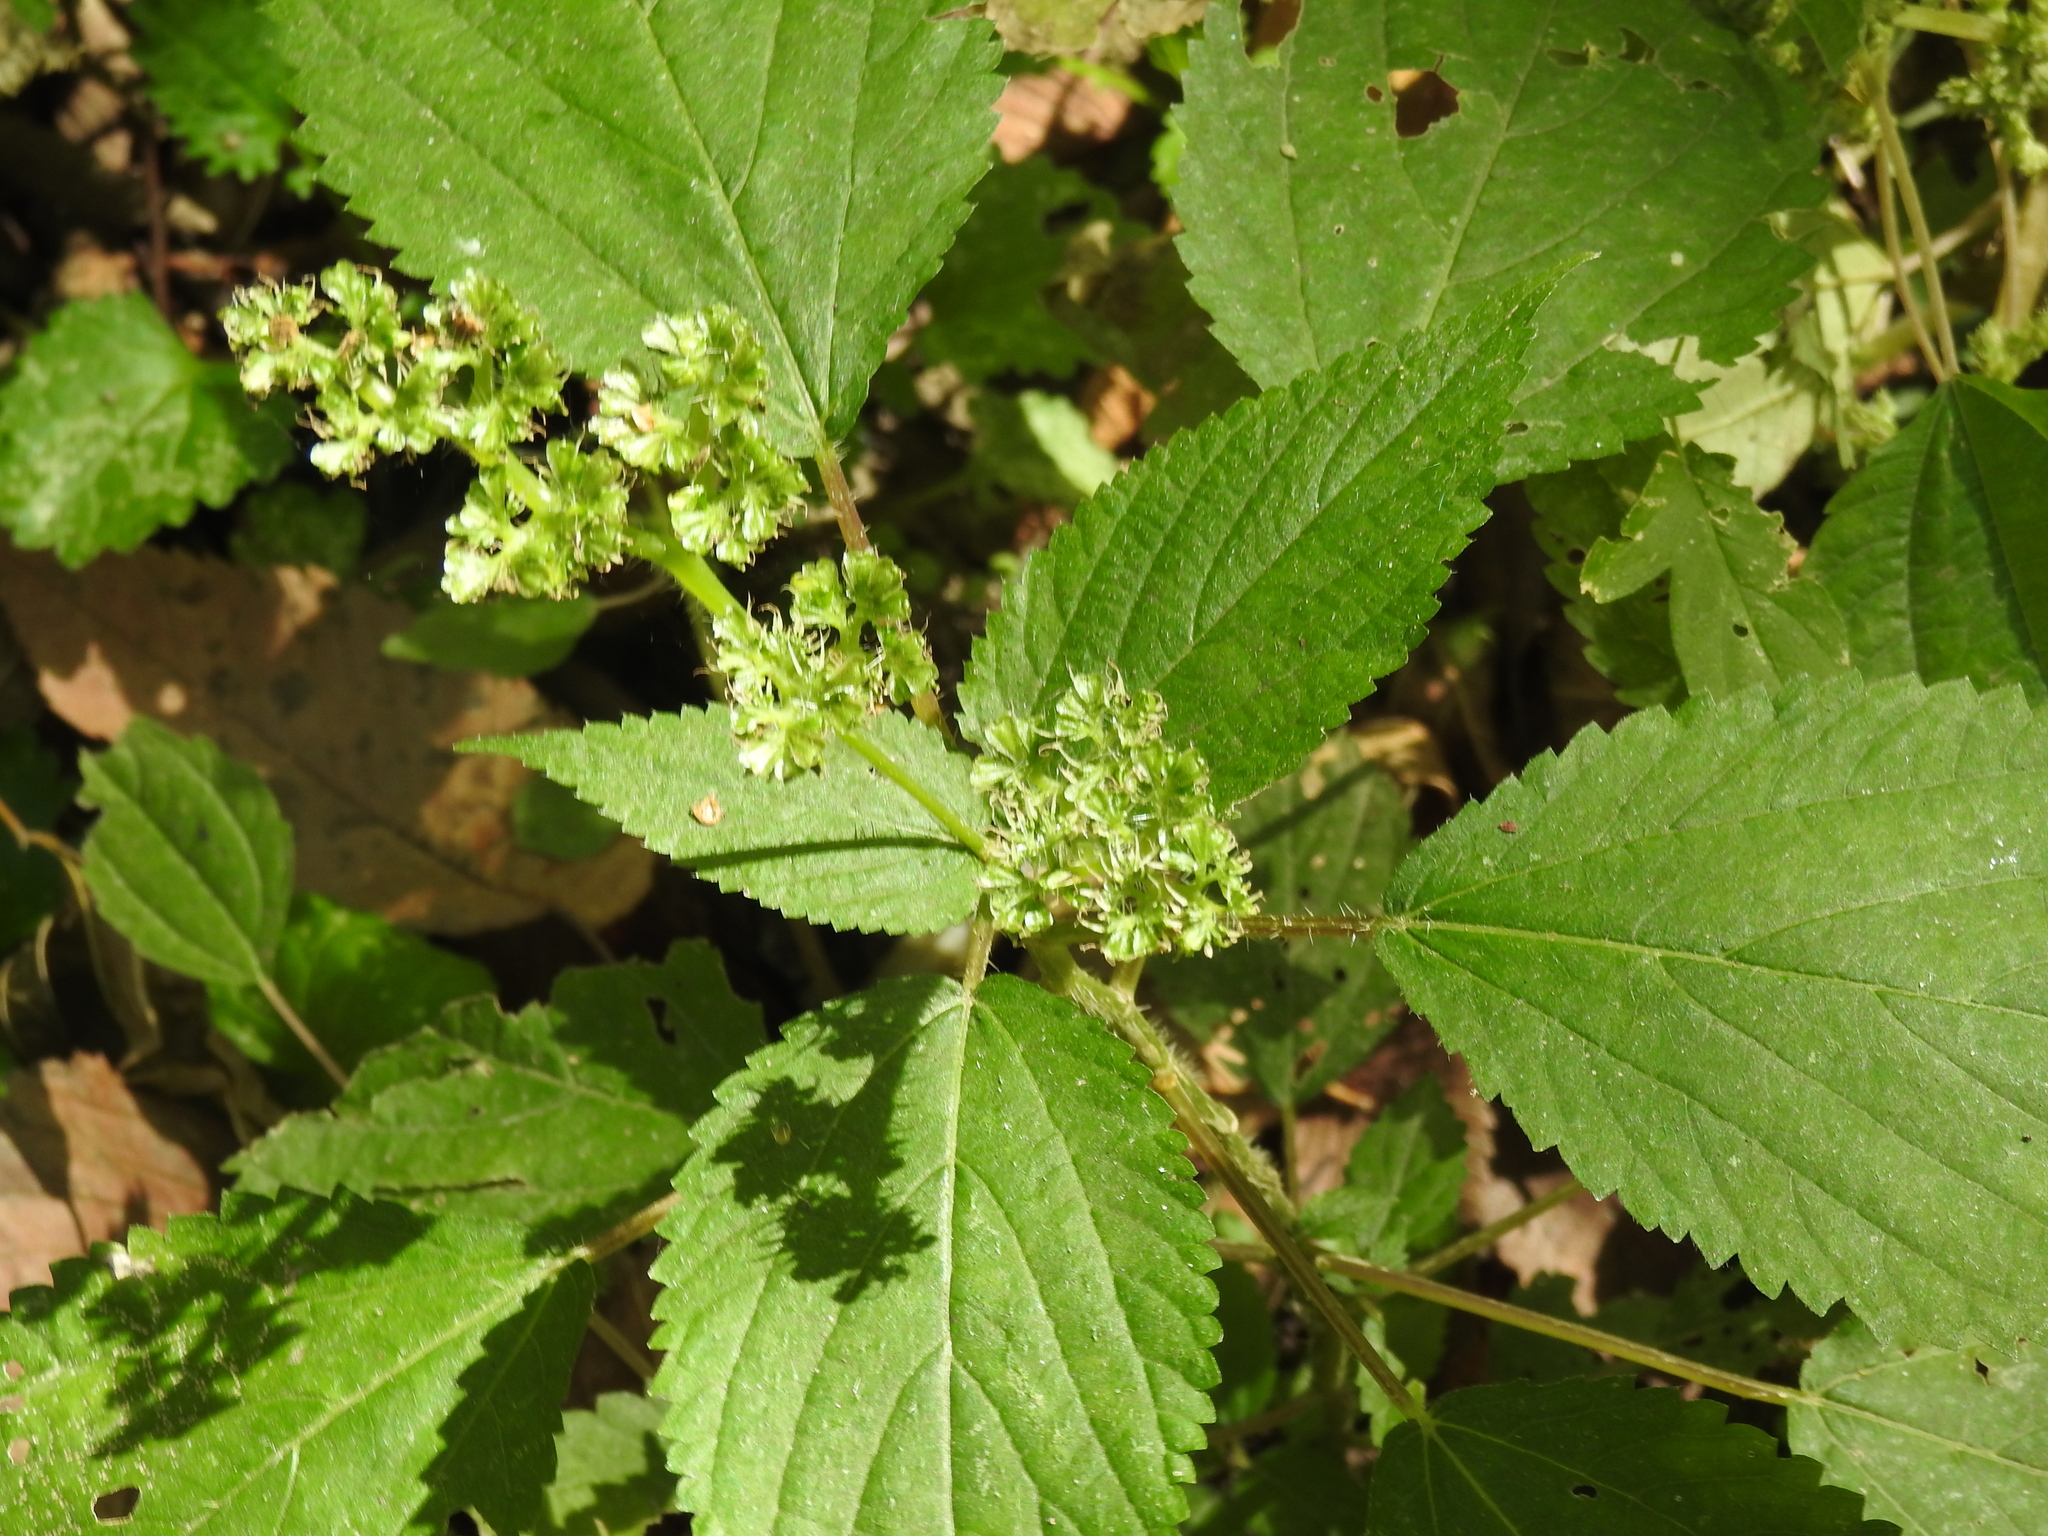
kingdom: Plantae
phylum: Tracheophyta
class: Magnoliopsida
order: Rosales
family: Urticaceae
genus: Laportea
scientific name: Laportea canadensis
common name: Canada nettle
